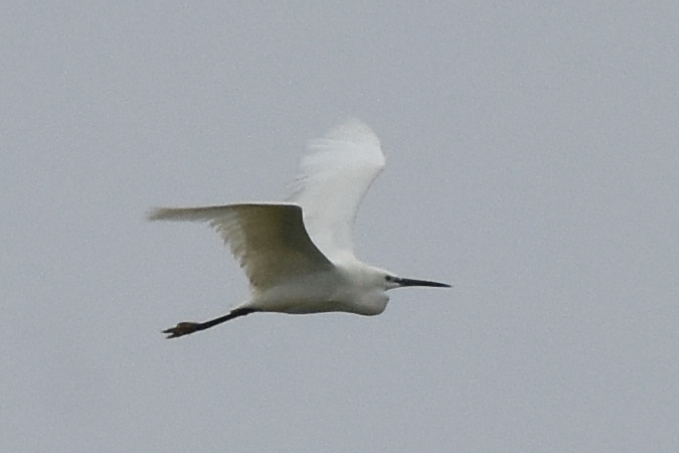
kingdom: Animalia
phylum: Chordata
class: Aves
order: Pelecaniformes
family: Ardeidae
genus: Egretta
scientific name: Egretta garzetta
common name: Little egret
